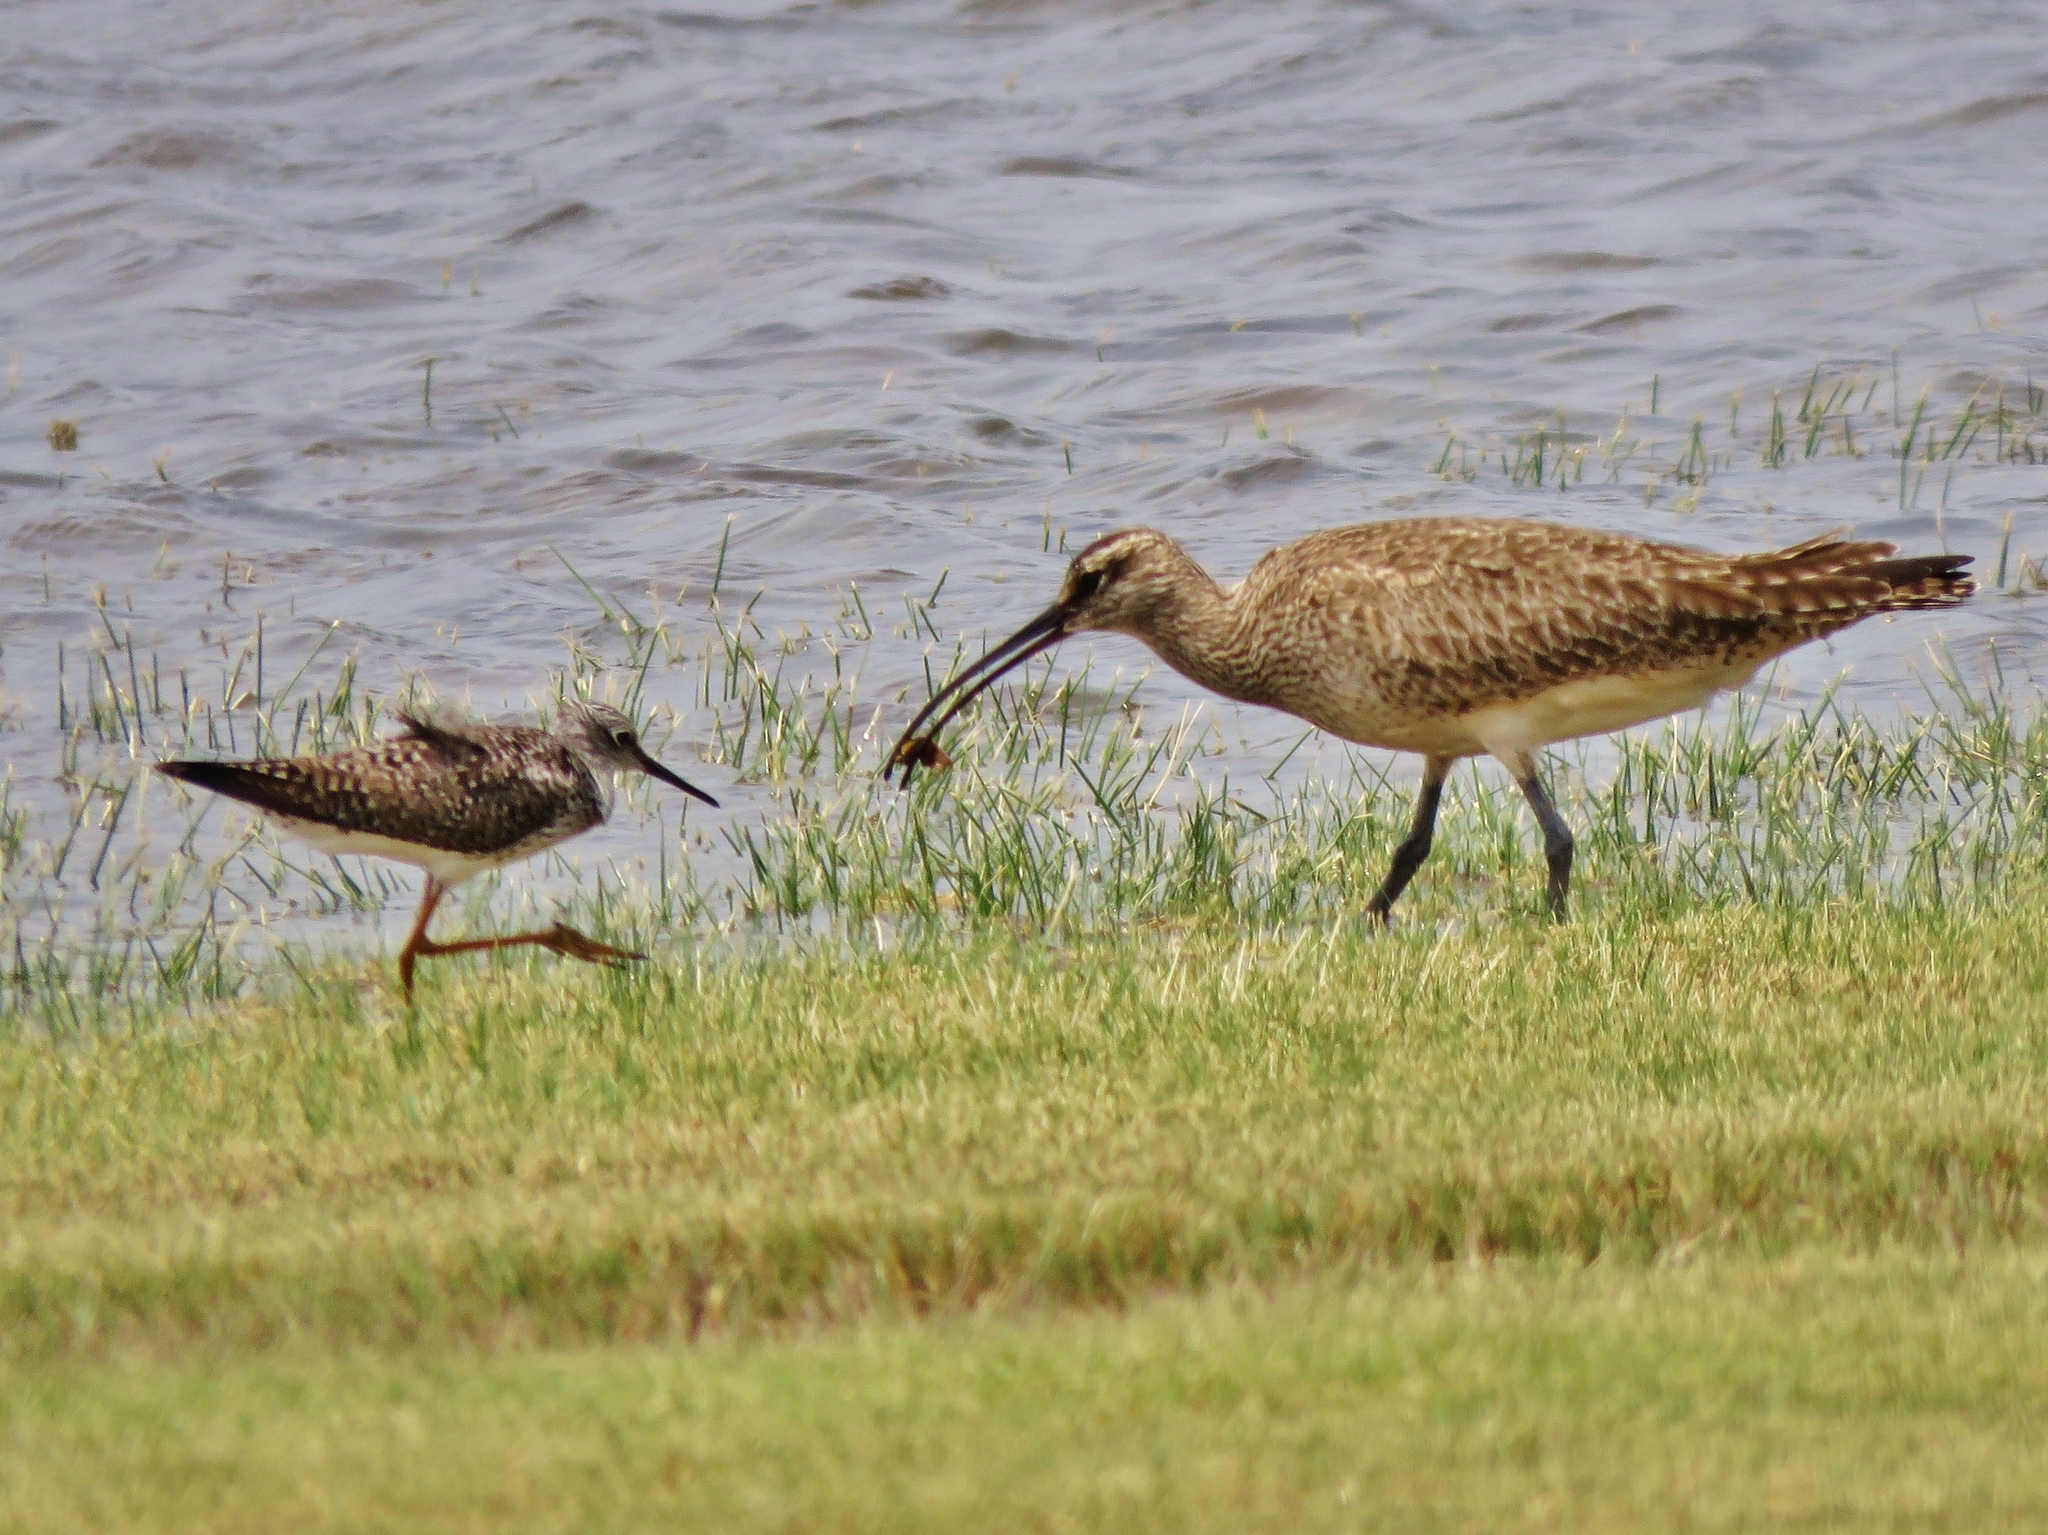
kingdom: Animalia
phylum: Chordata
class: Aves
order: Charadriiformes
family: Scolopacidae
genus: Numenius
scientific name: Numenius phaeopus
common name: Whimbrel
